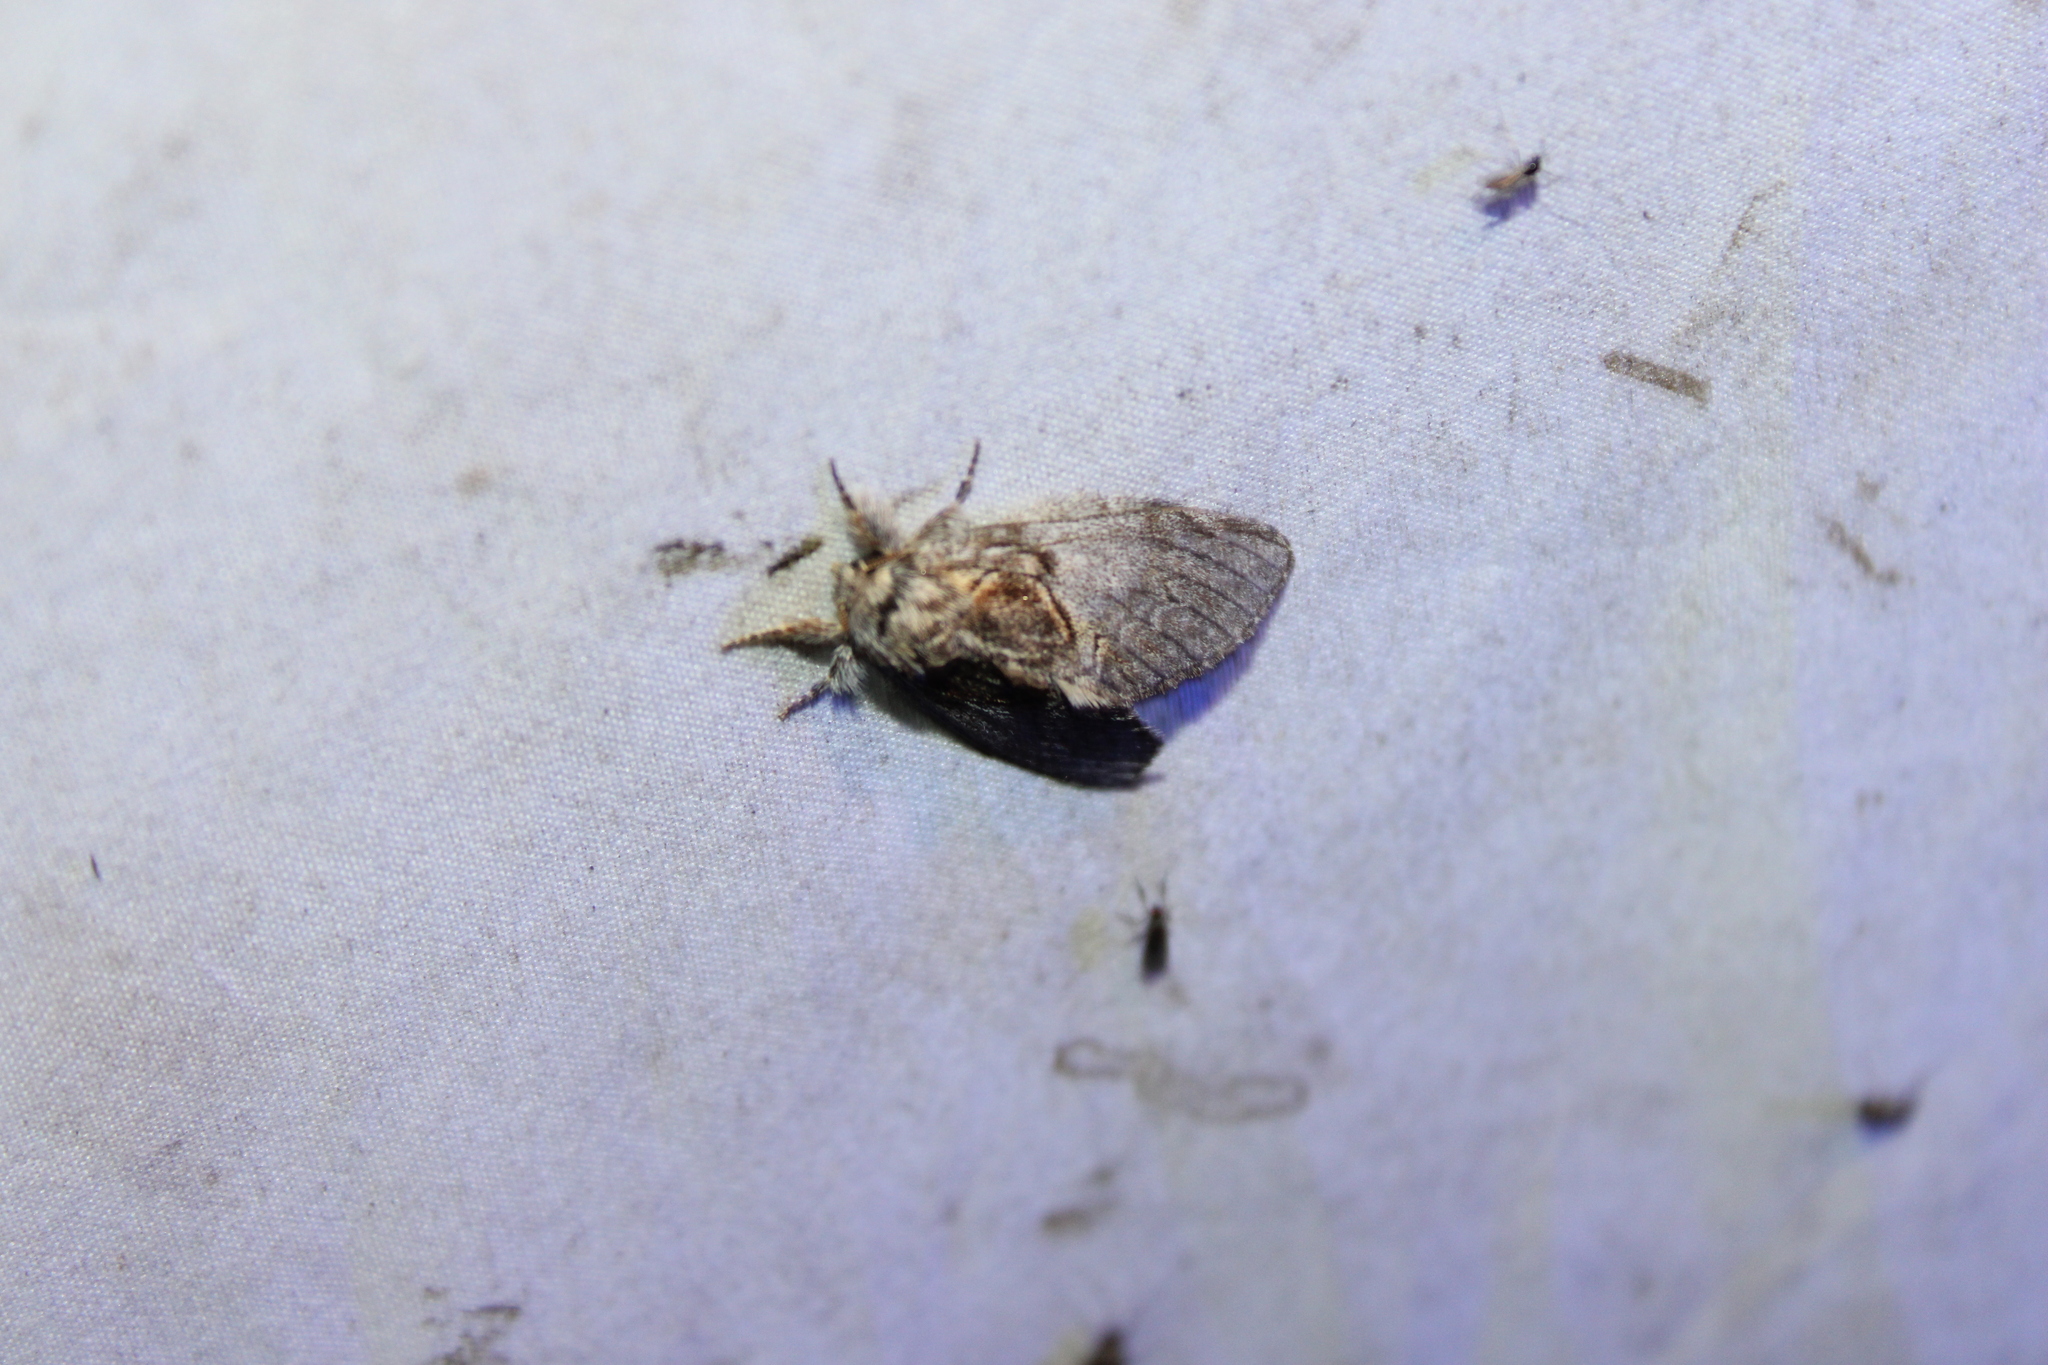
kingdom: Animalia
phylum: Arthropoda
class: Insecta
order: Lepidoptera
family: Notodontidae
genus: Peridea
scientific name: Peridea basitriens
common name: Oval-based prominent
